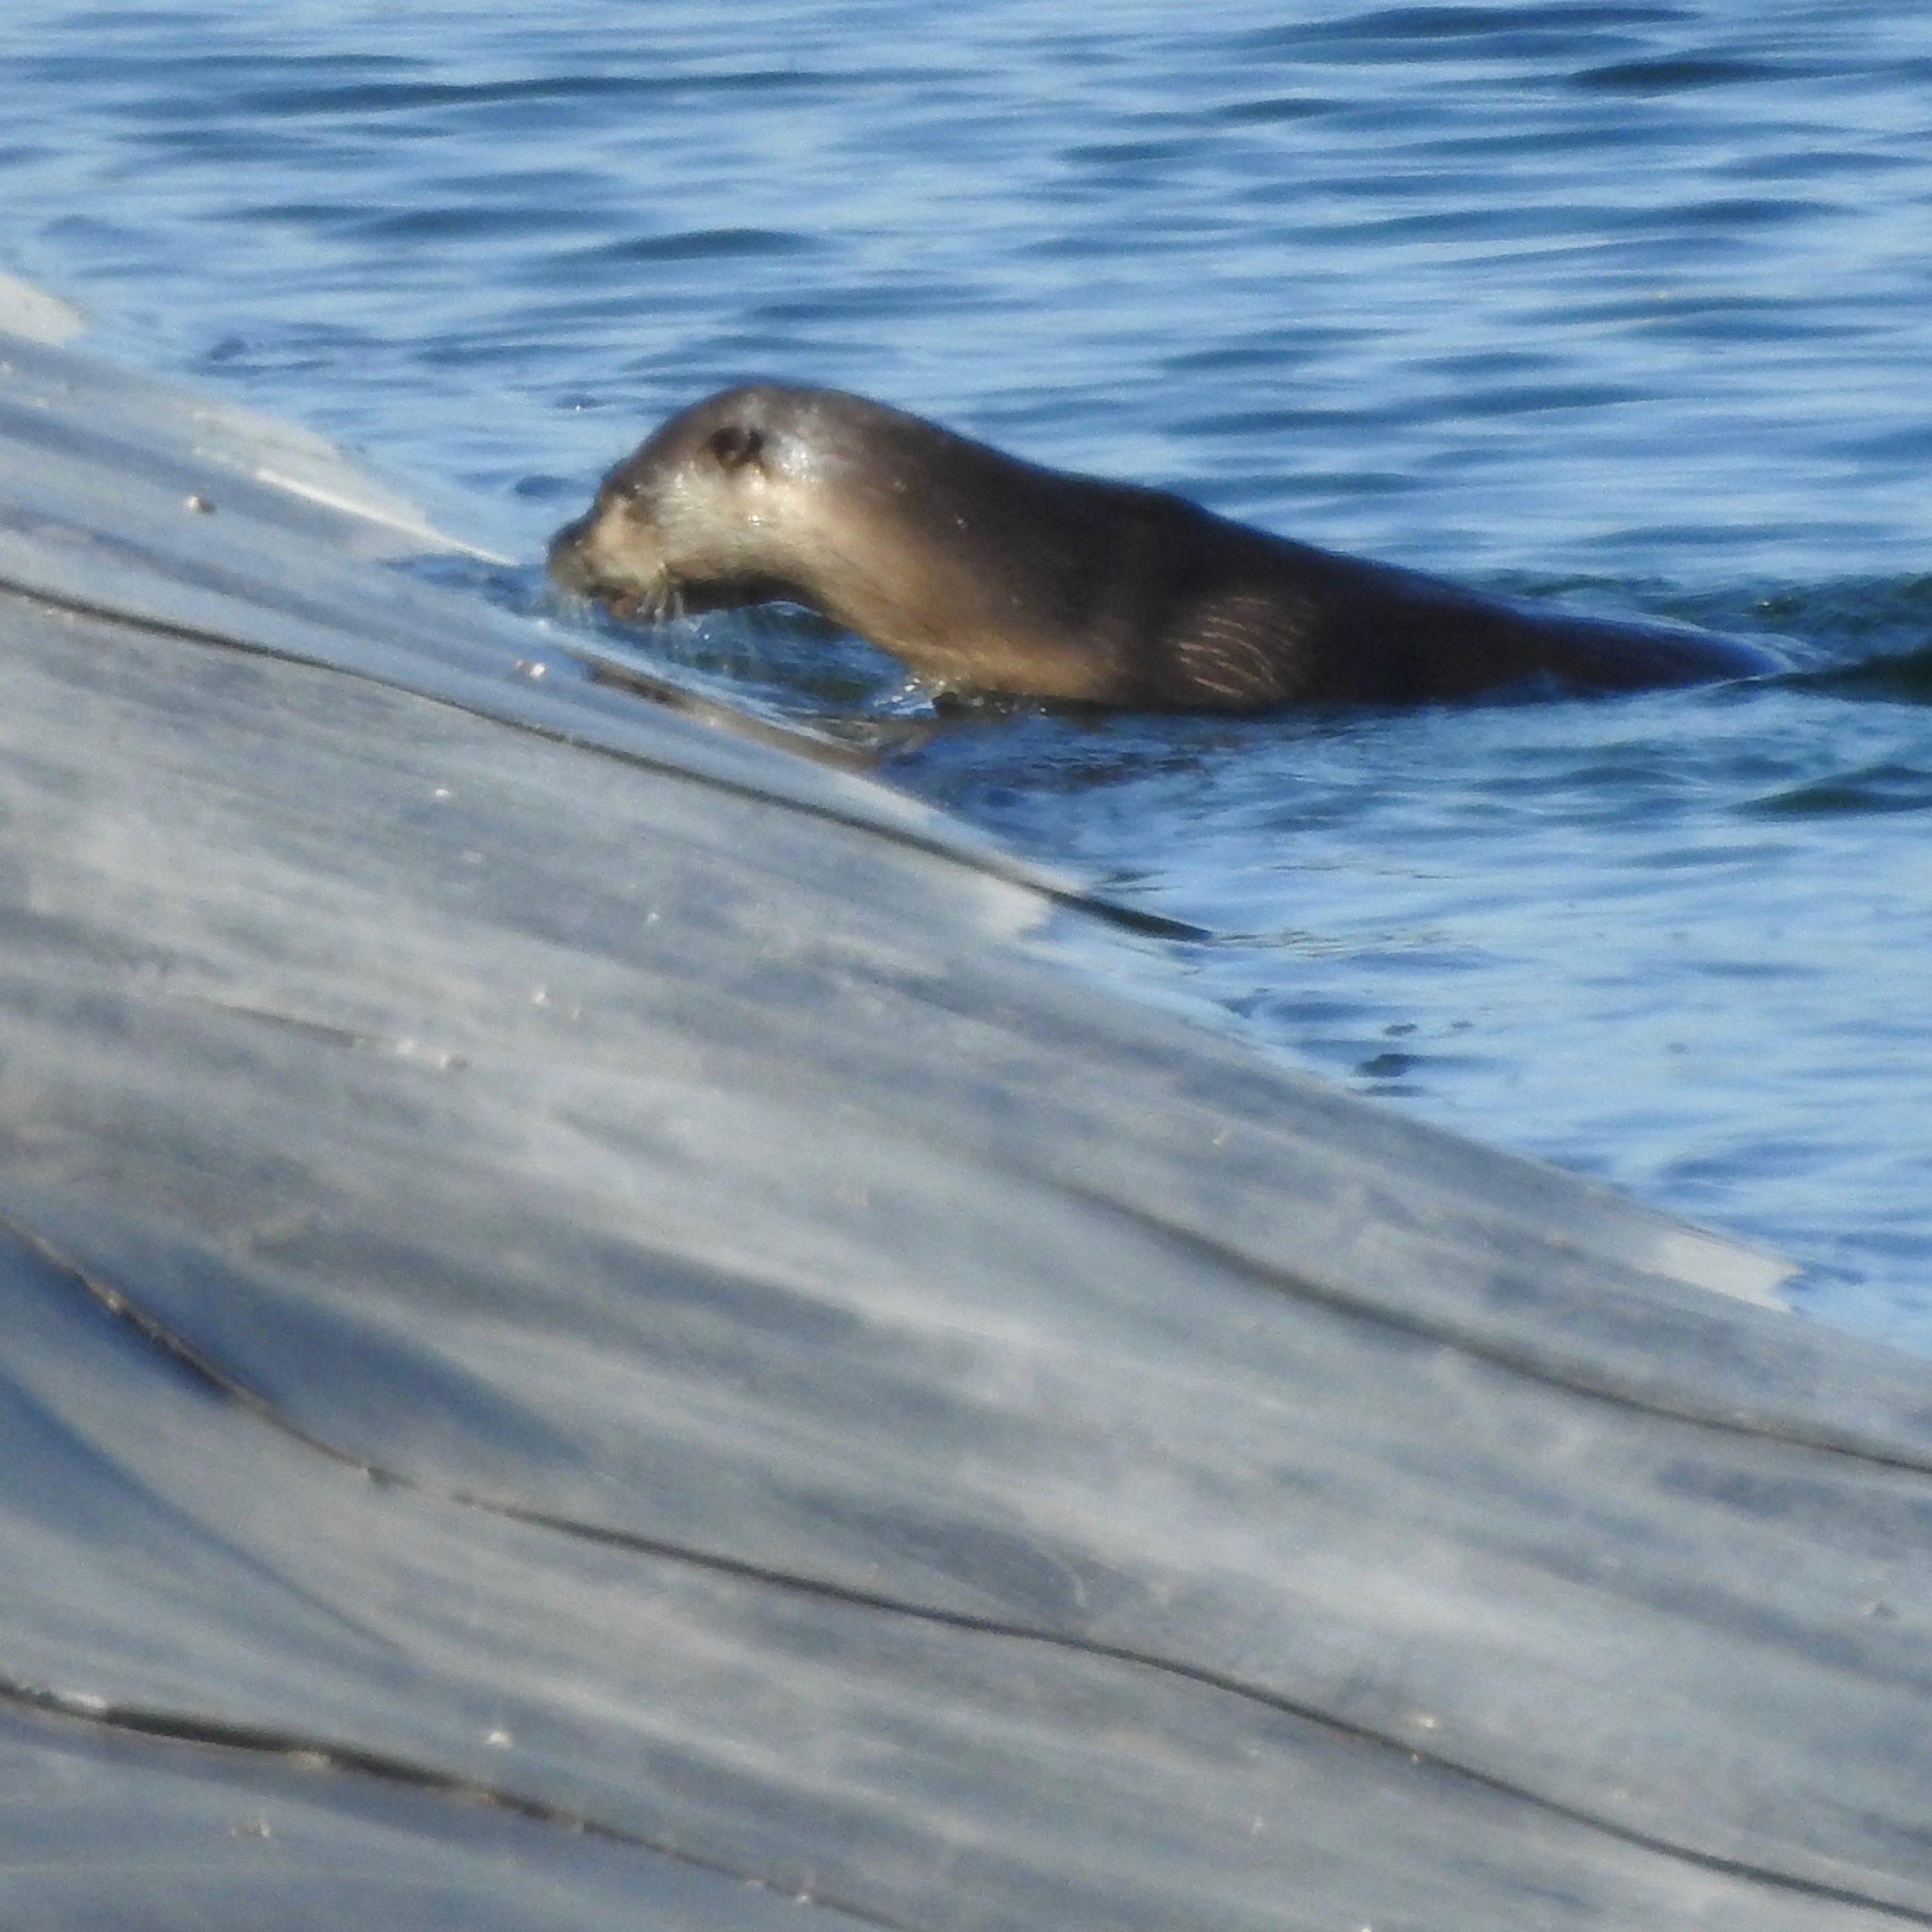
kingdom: Animalia
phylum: Chordata
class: Mammalia
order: Carnivora
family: Mustelidae
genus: Lontra
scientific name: Lontra canadensis
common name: North american river otter
